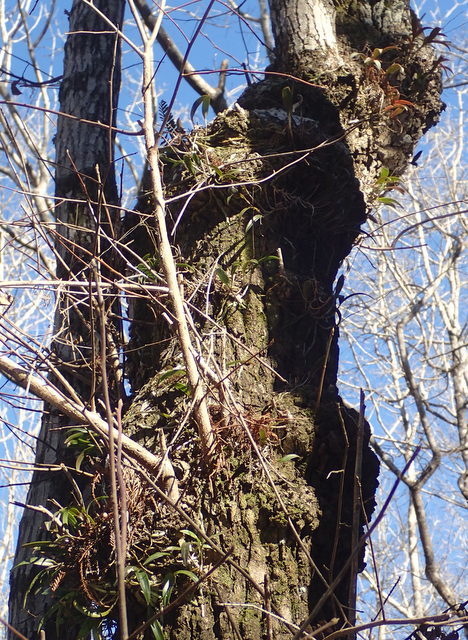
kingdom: Plantae
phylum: Tracheophyta
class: Liliopsida
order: Asparagales
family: Orchidaceae
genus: Epidendrum
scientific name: Epidendrum conopseum
